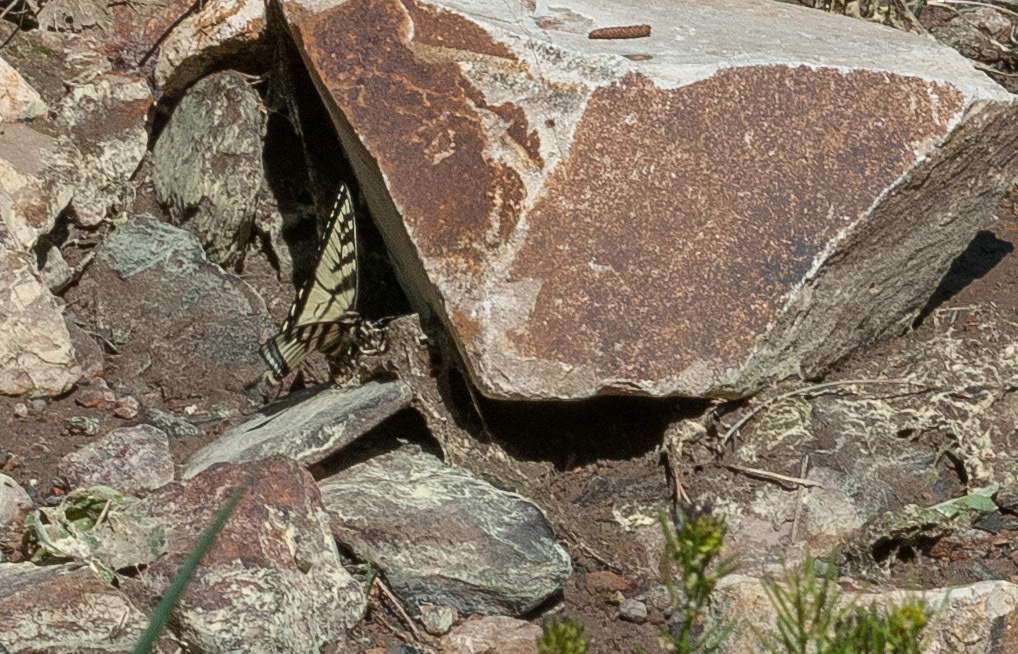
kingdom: Animalia
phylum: Arthropoda
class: Insecta
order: Lepidoptera
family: Papilionidae
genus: Papilio
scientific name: Papilio canadensis
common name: Canadian tiger swallowtail
